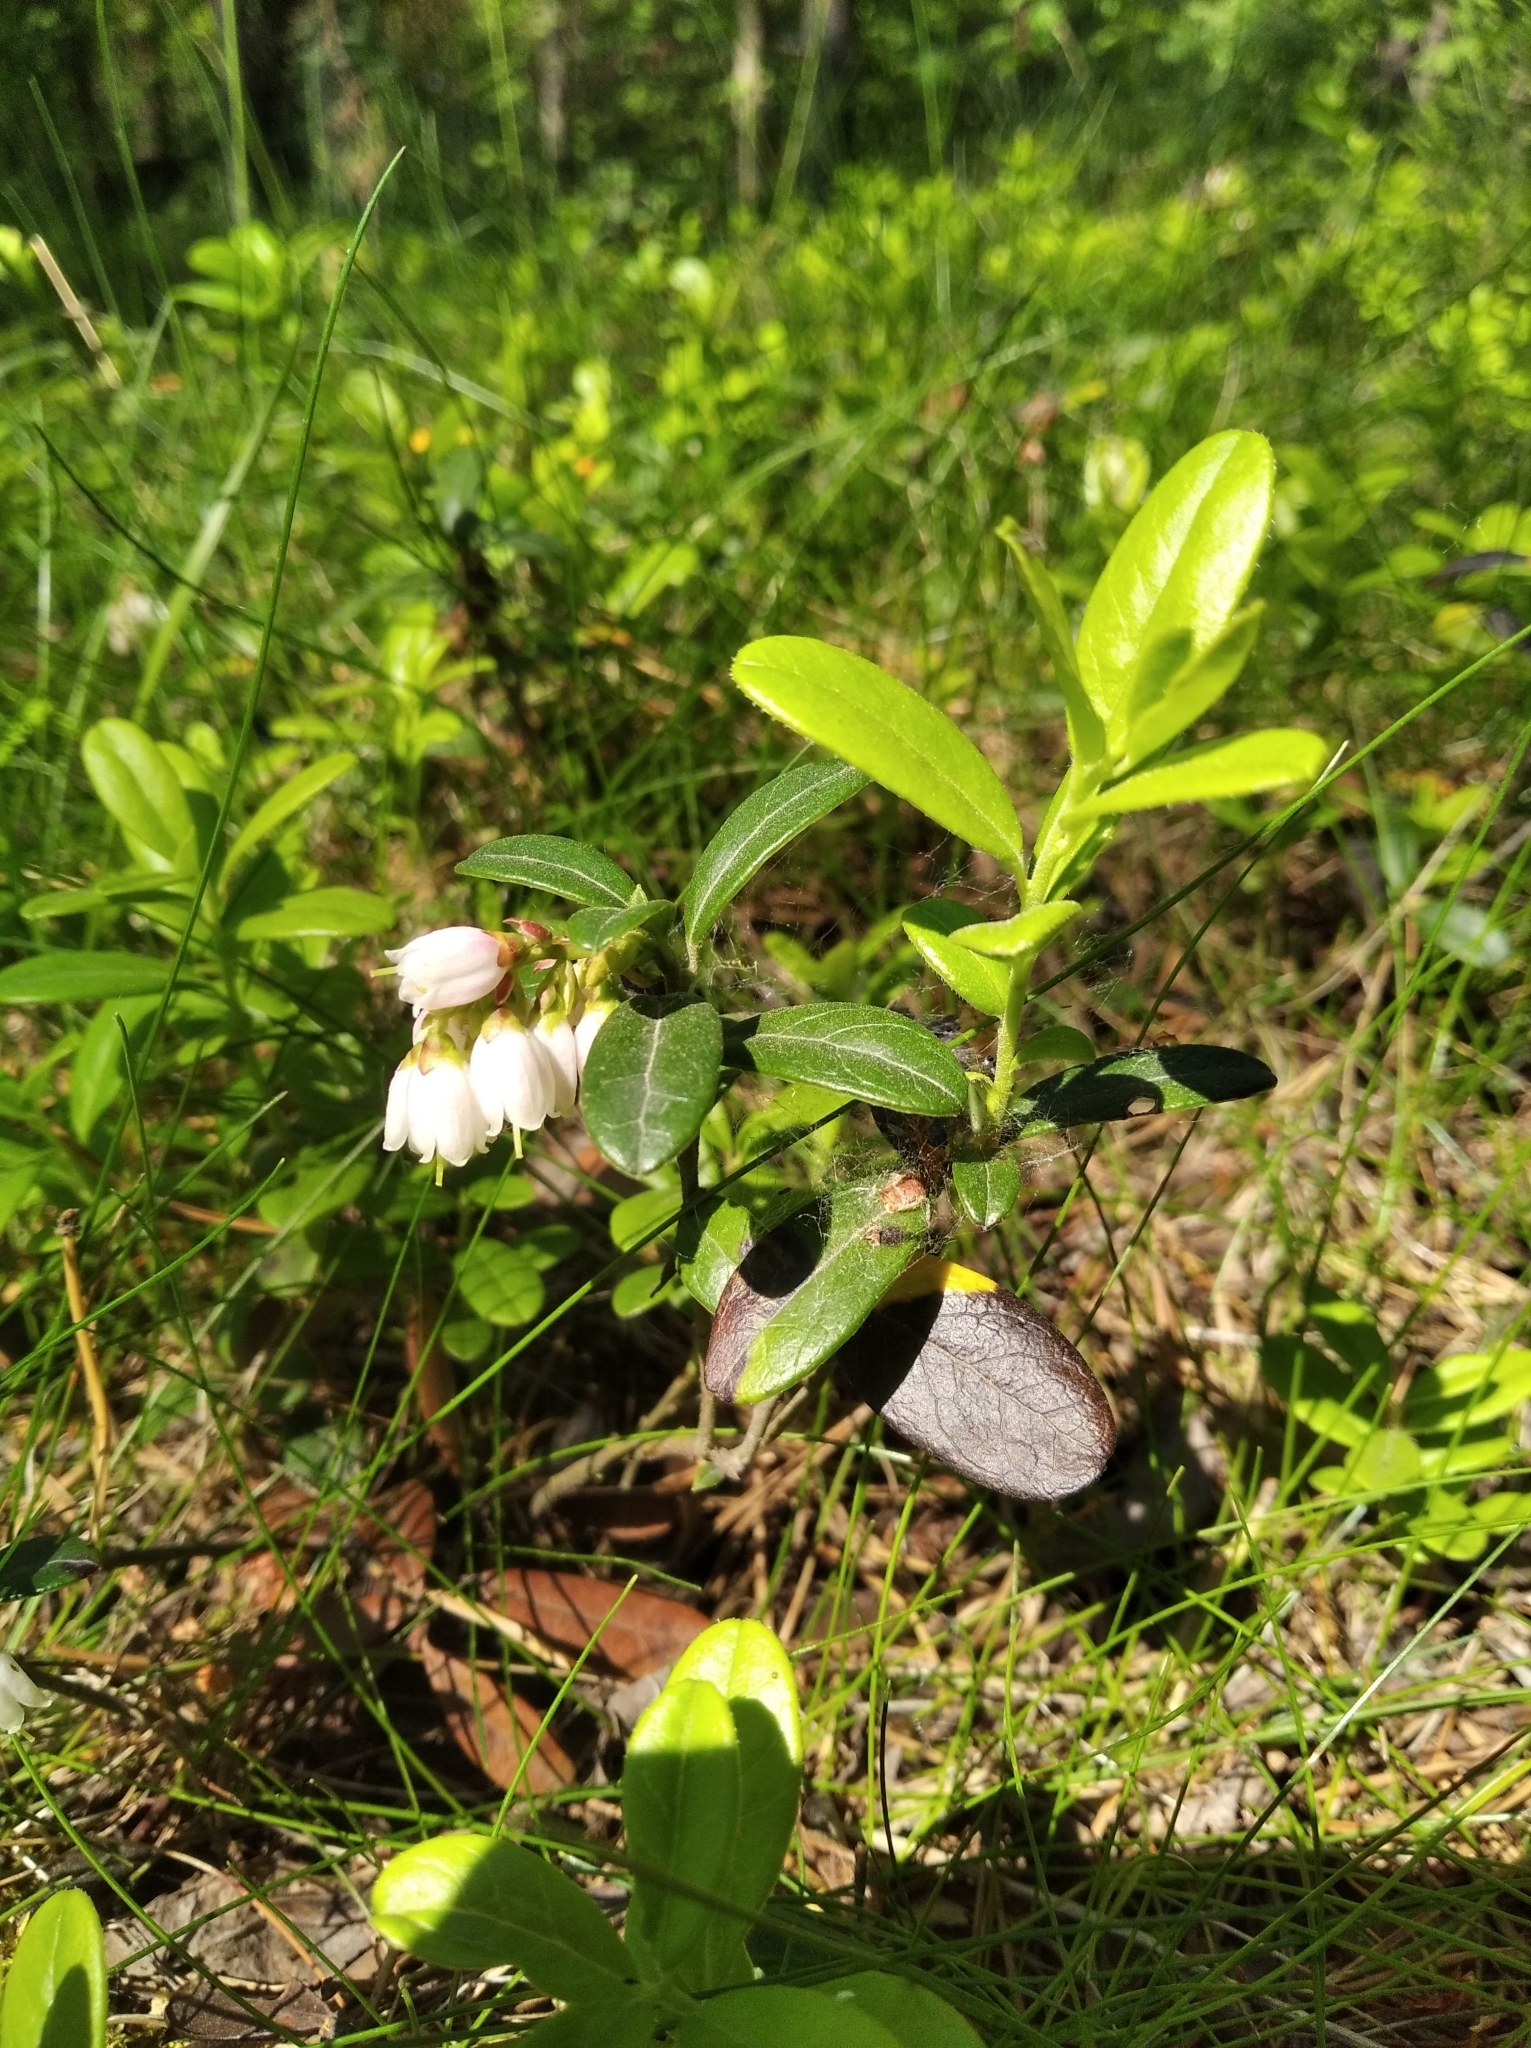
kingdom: Plantae
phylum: Tracheophyta
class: Magnoliopsida
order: Ericales
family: Ericaceae
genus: Vaccinium
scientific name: Vaccinium vitis-idaea
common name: Cowberry
